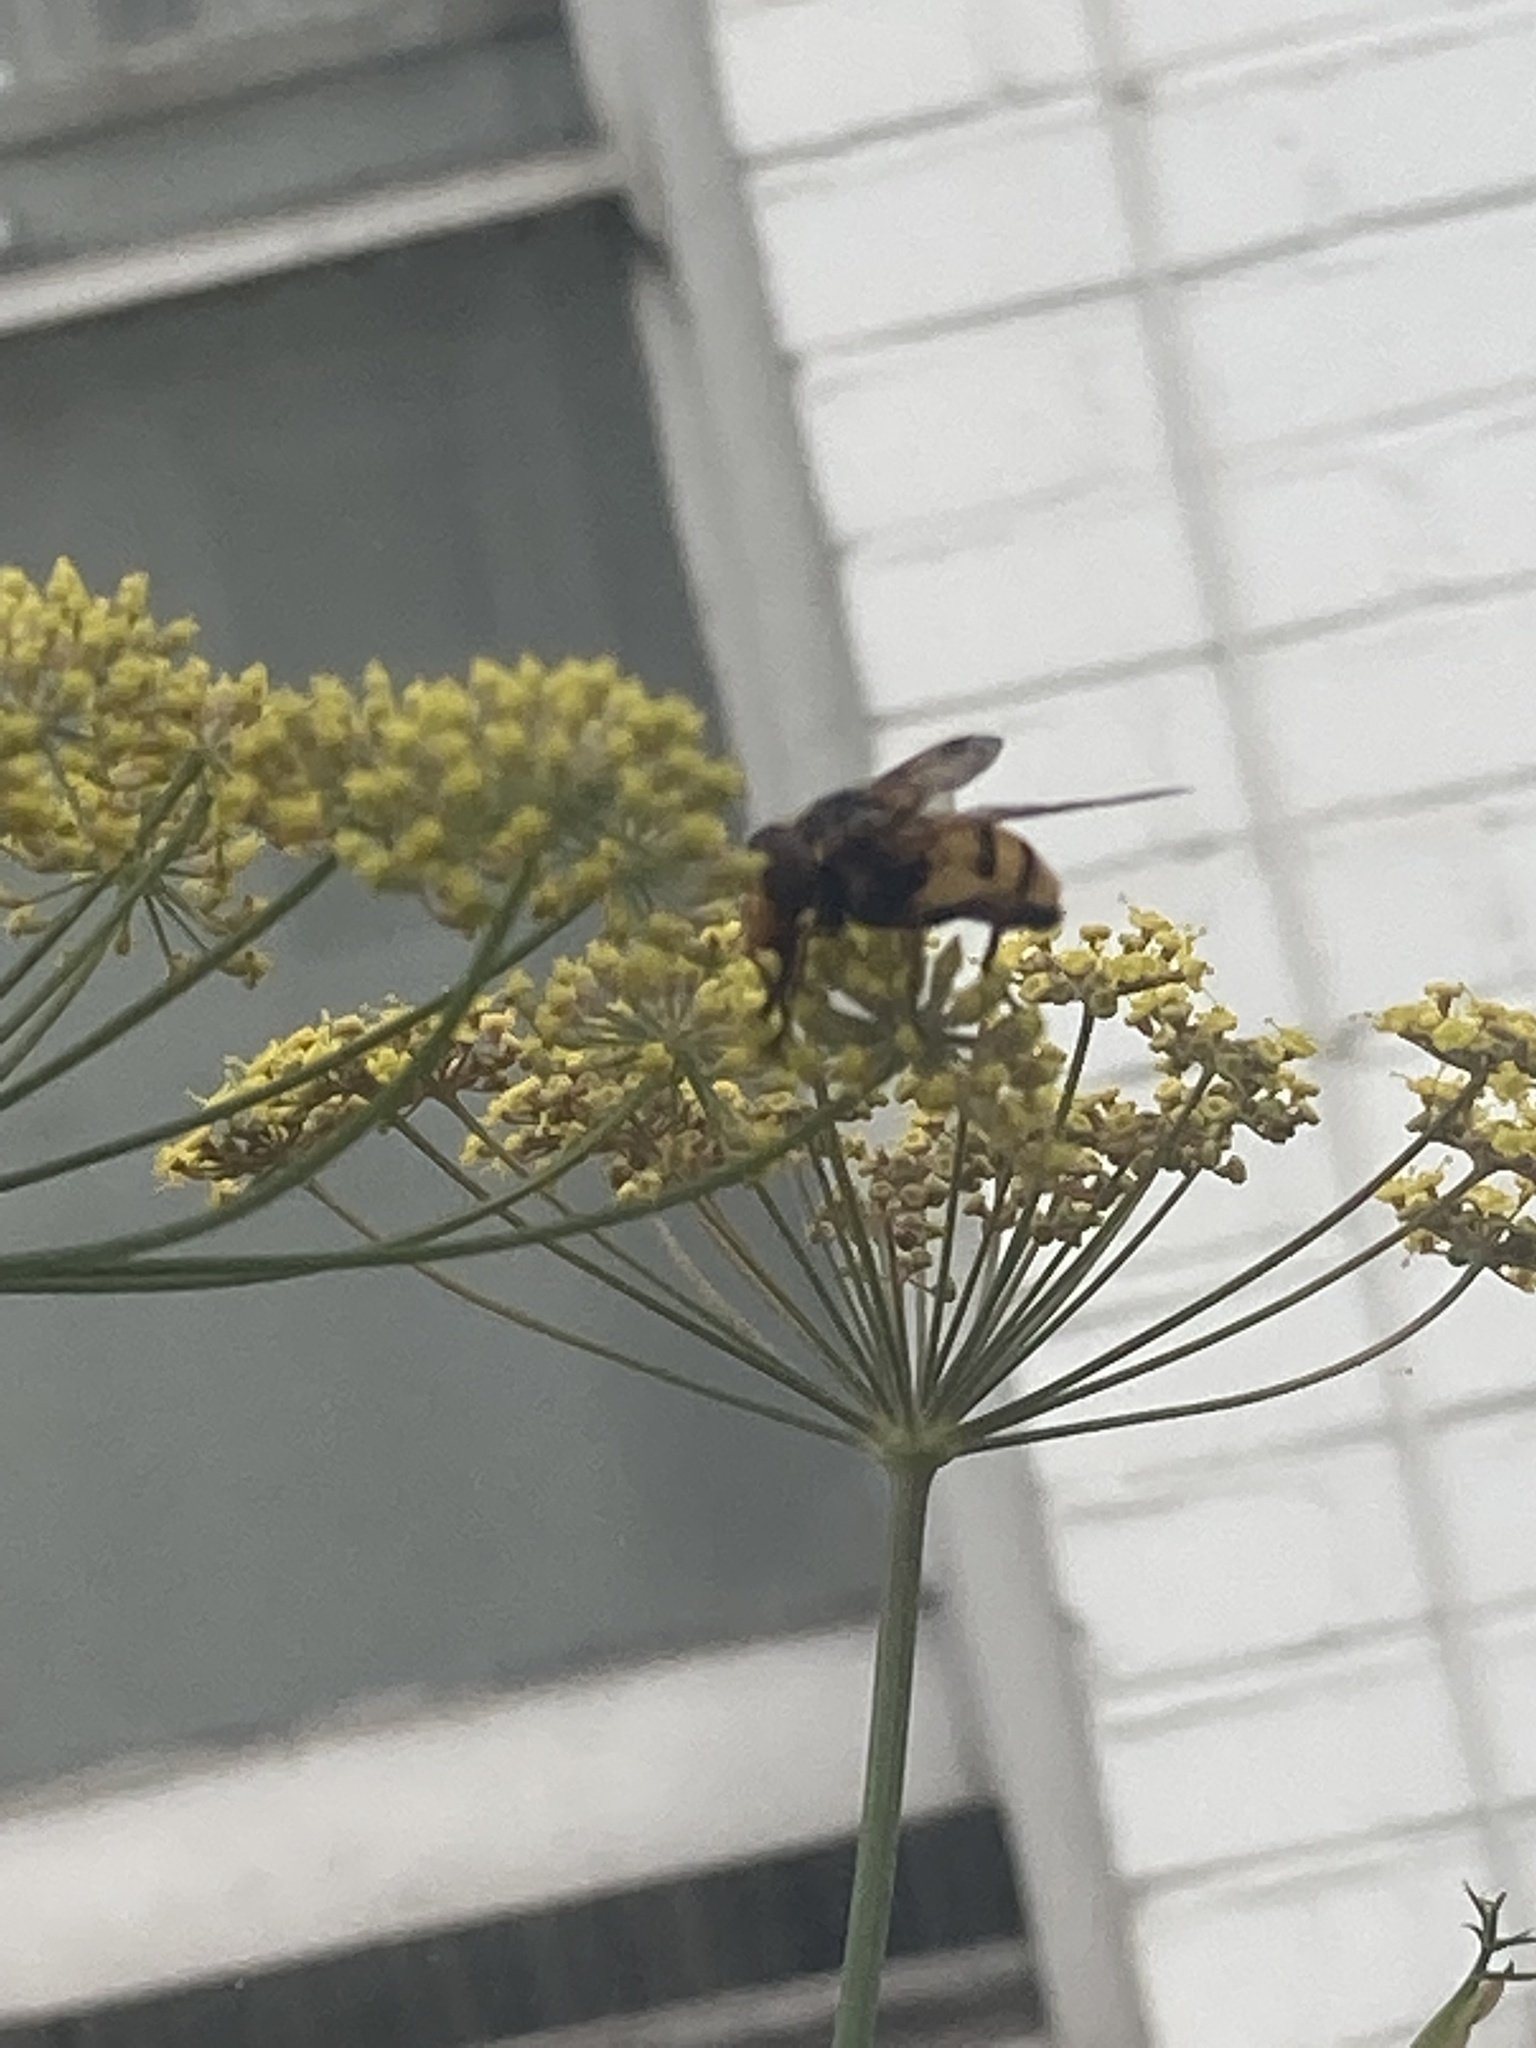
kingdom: Animalia
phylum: Arthropoda
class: Insecta
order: Diptera
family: Syrphidae
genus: Volucella
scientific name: Volucella inanis
